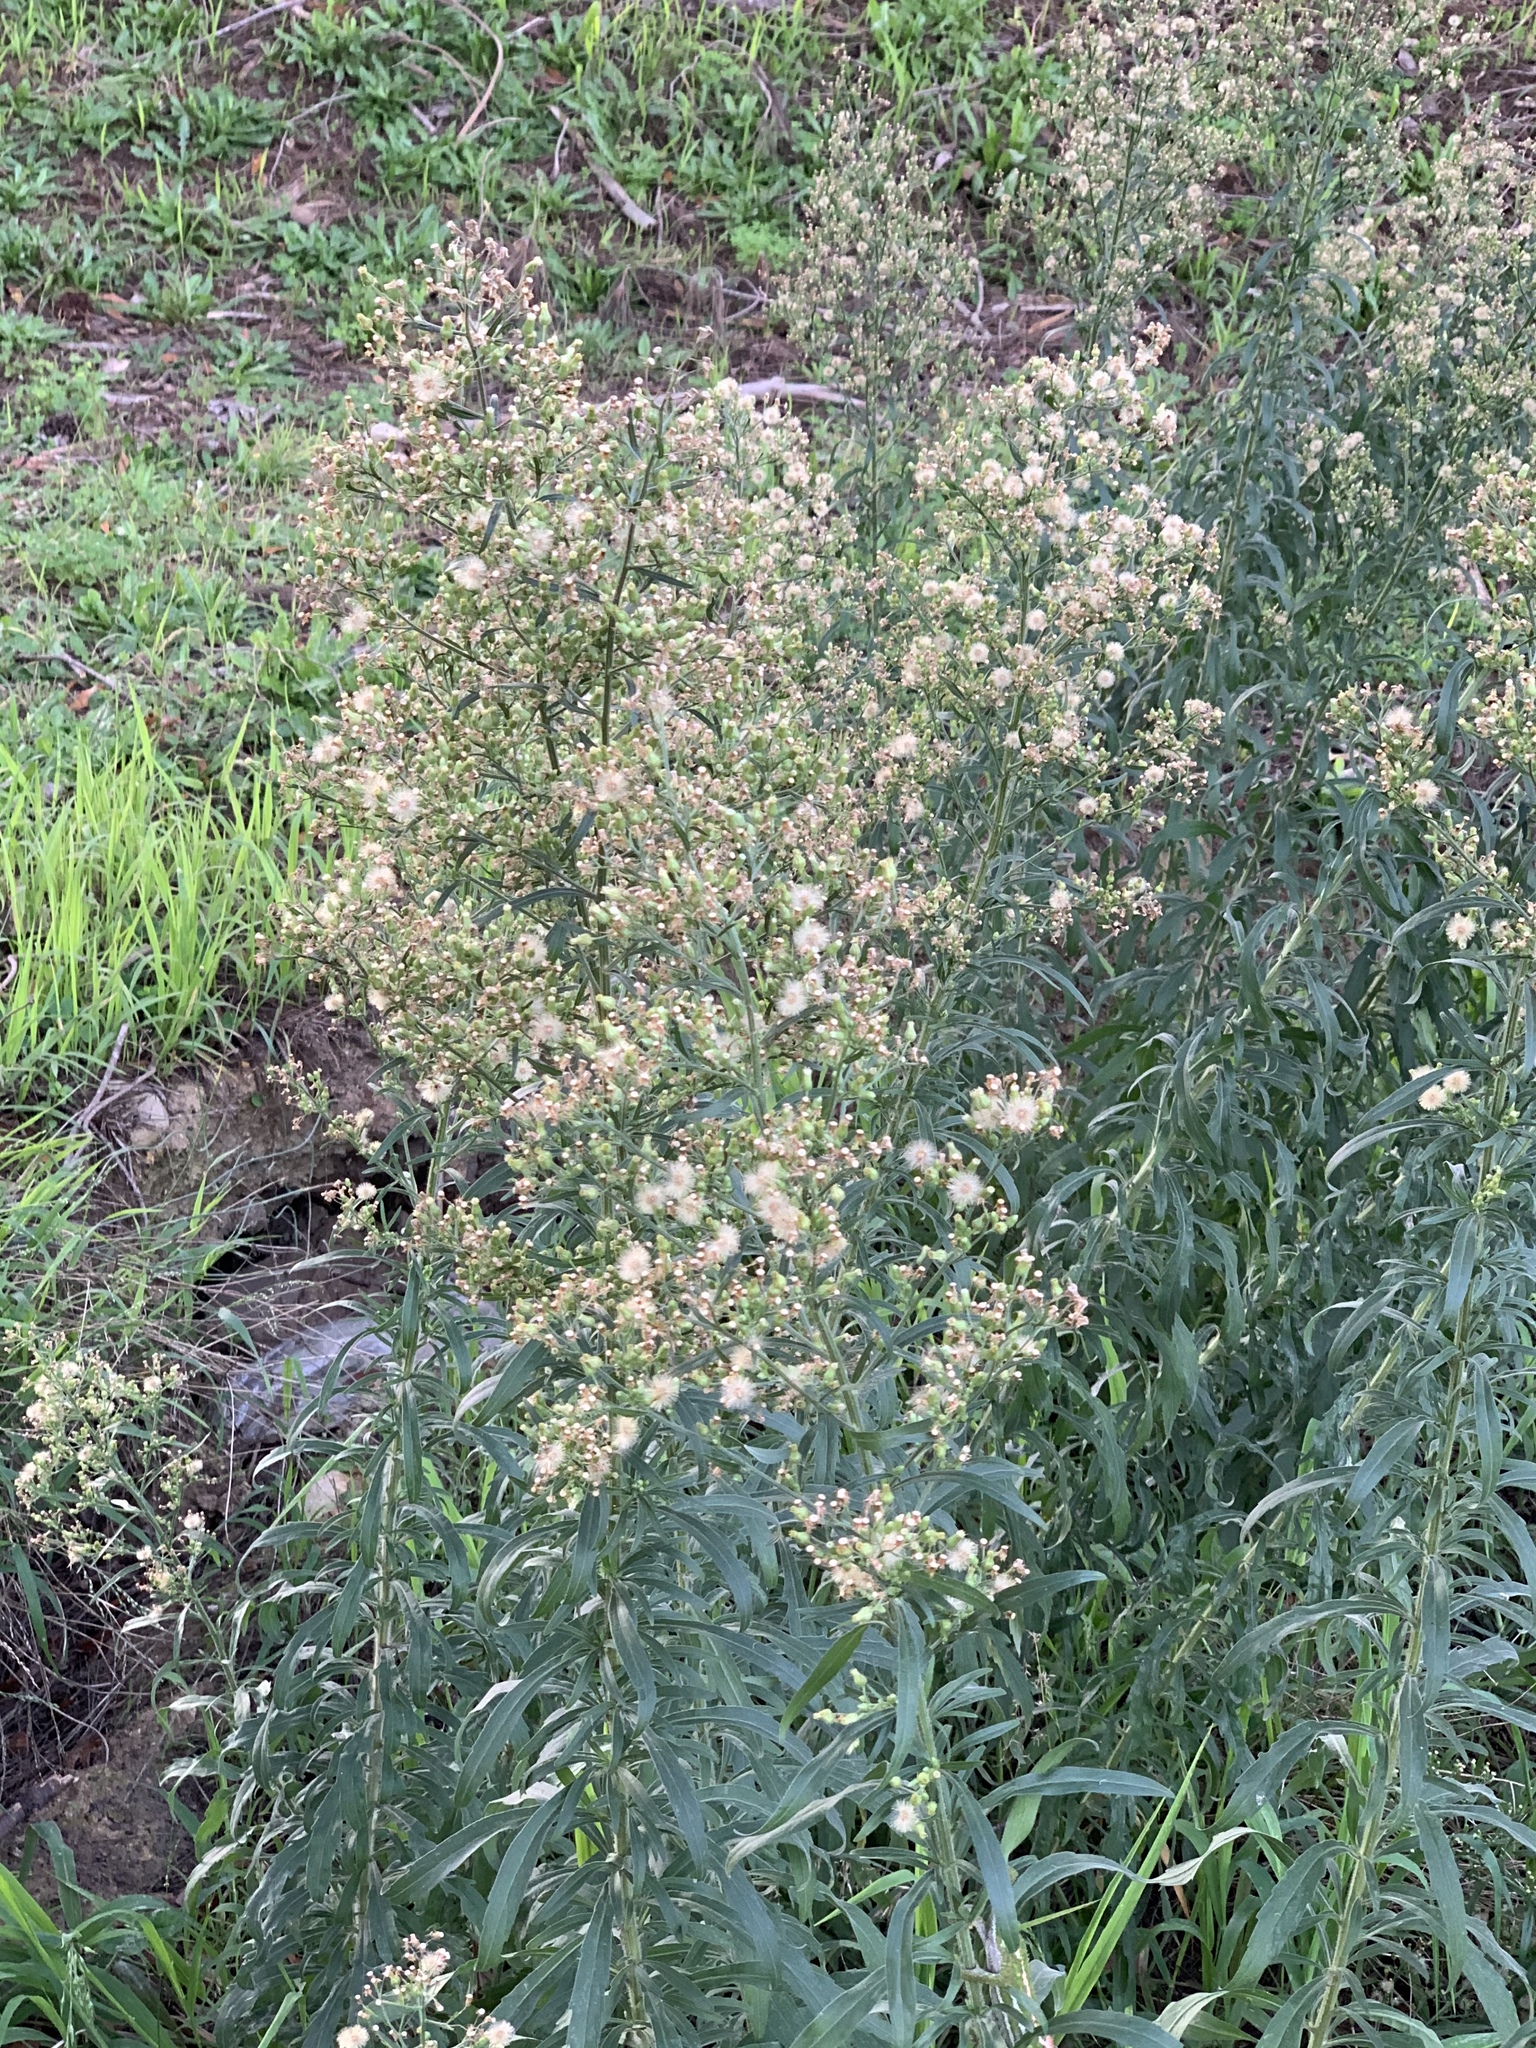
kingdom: Plantae
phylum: Tracheophyta
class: Magnoliopsida
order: Asterales
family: Asteraceae
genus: Erigeron
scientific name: Erigeron sumatrensis
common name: Daisy
